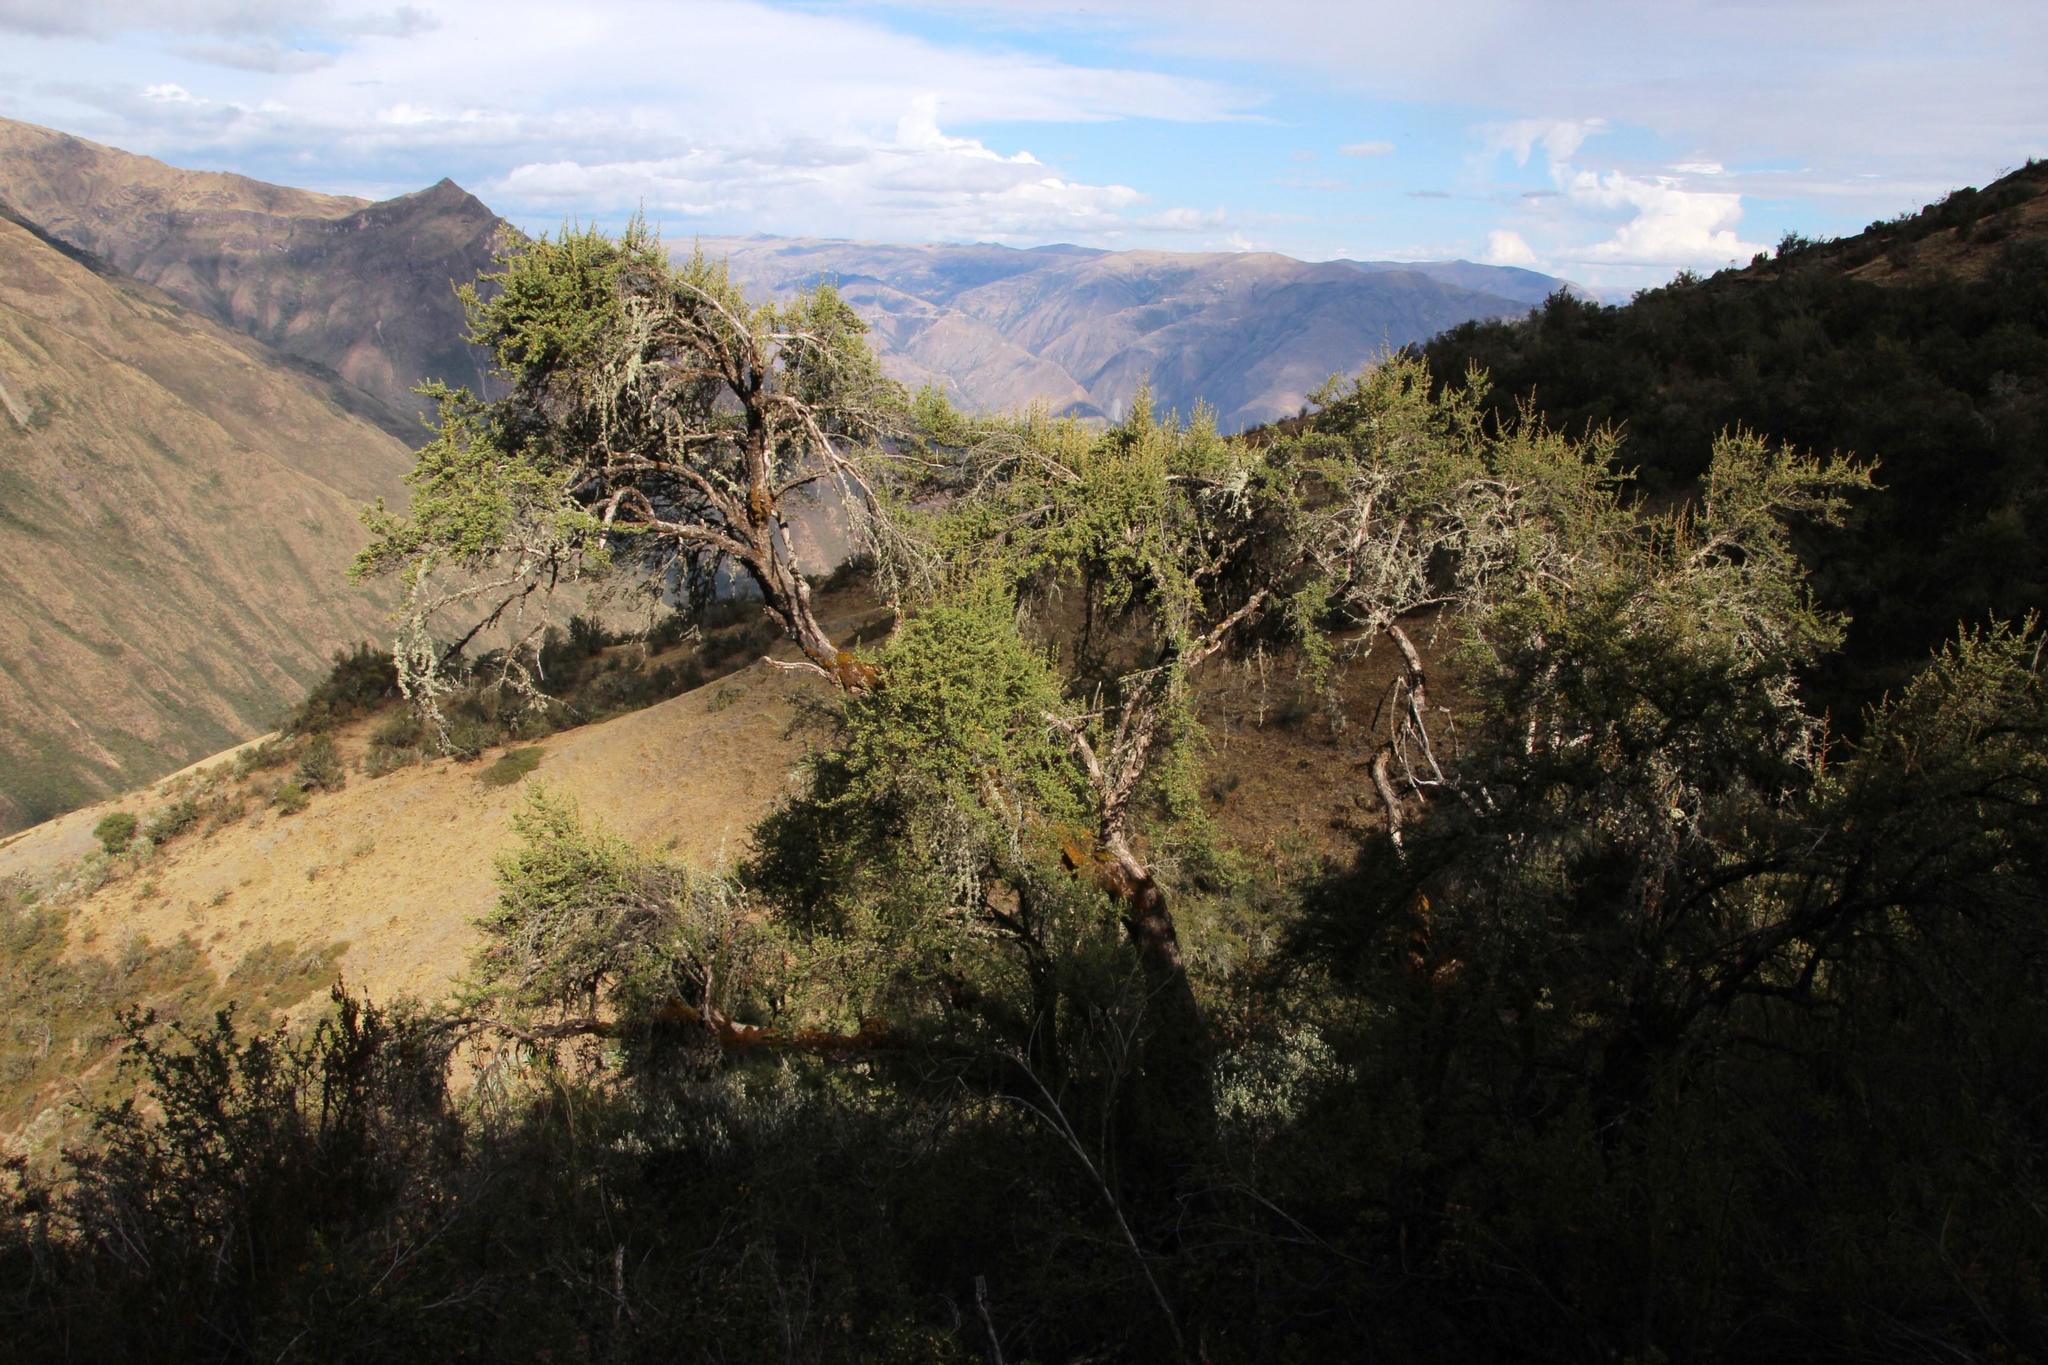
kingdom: Plantae
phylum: Tracheophyta
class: Magnoliopsida
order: Escalloniales
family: Escalloniaceae
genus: Escallonia
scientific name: Escallonia myrtilloides
